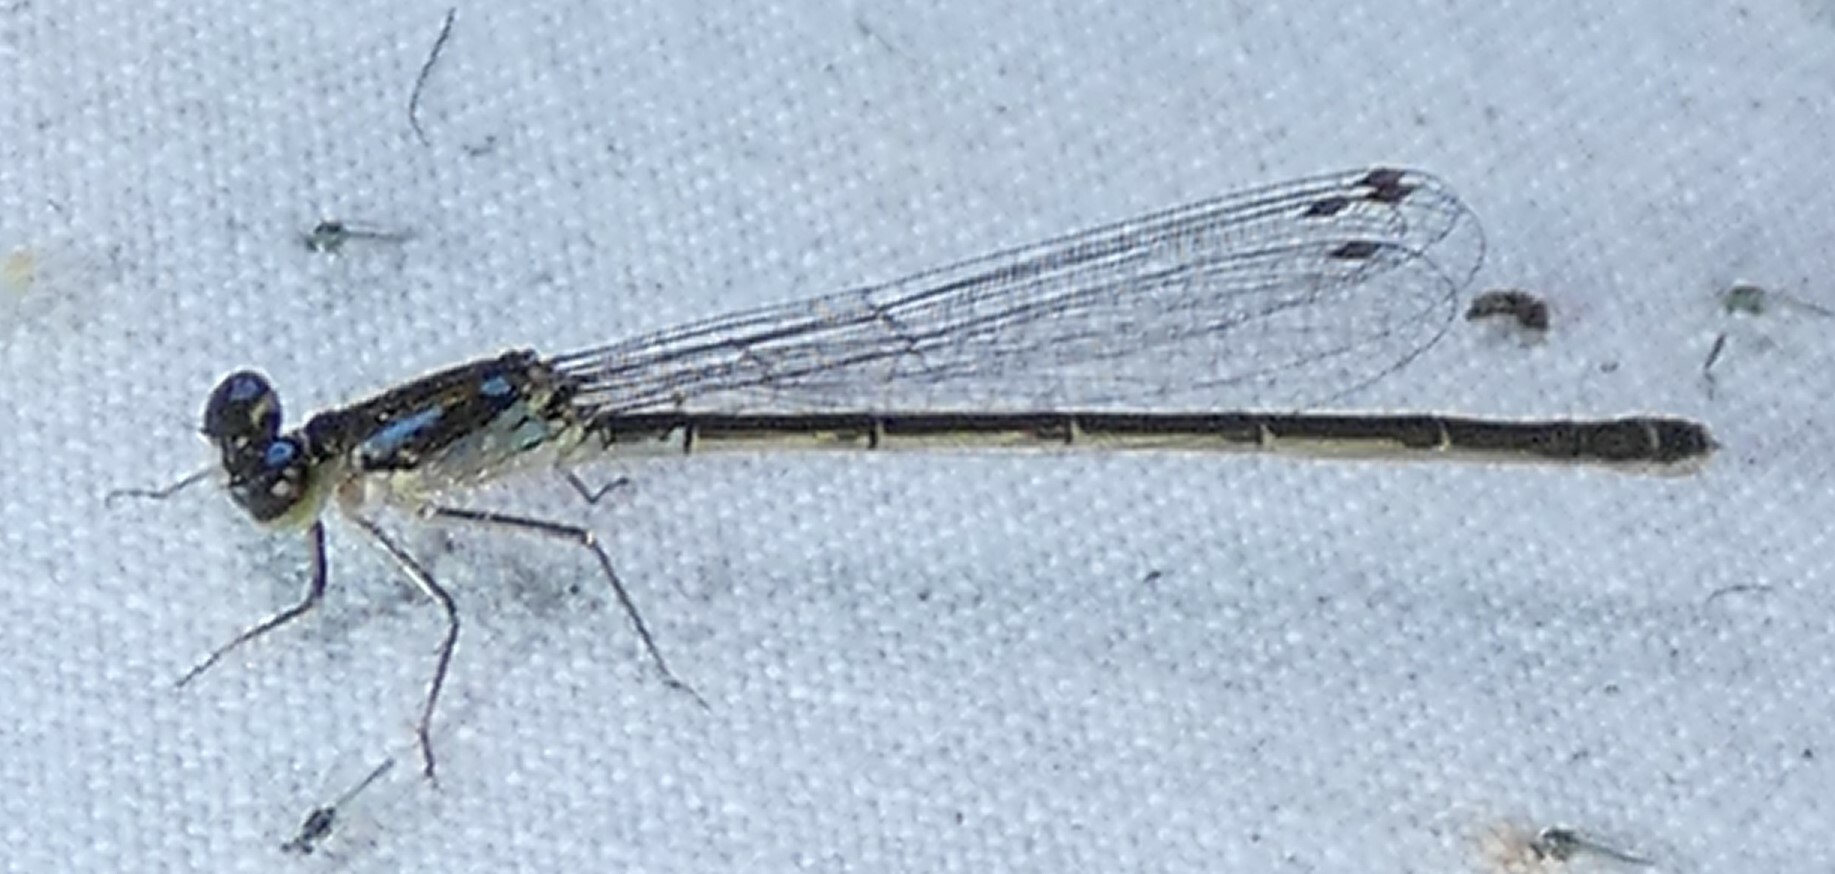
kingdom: Animalia
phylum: Arthropoda
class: Insecta
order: Odonata
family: Coenagrionidae
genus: Ischnura
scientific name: Ischnura posita
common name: Fragile forktail
